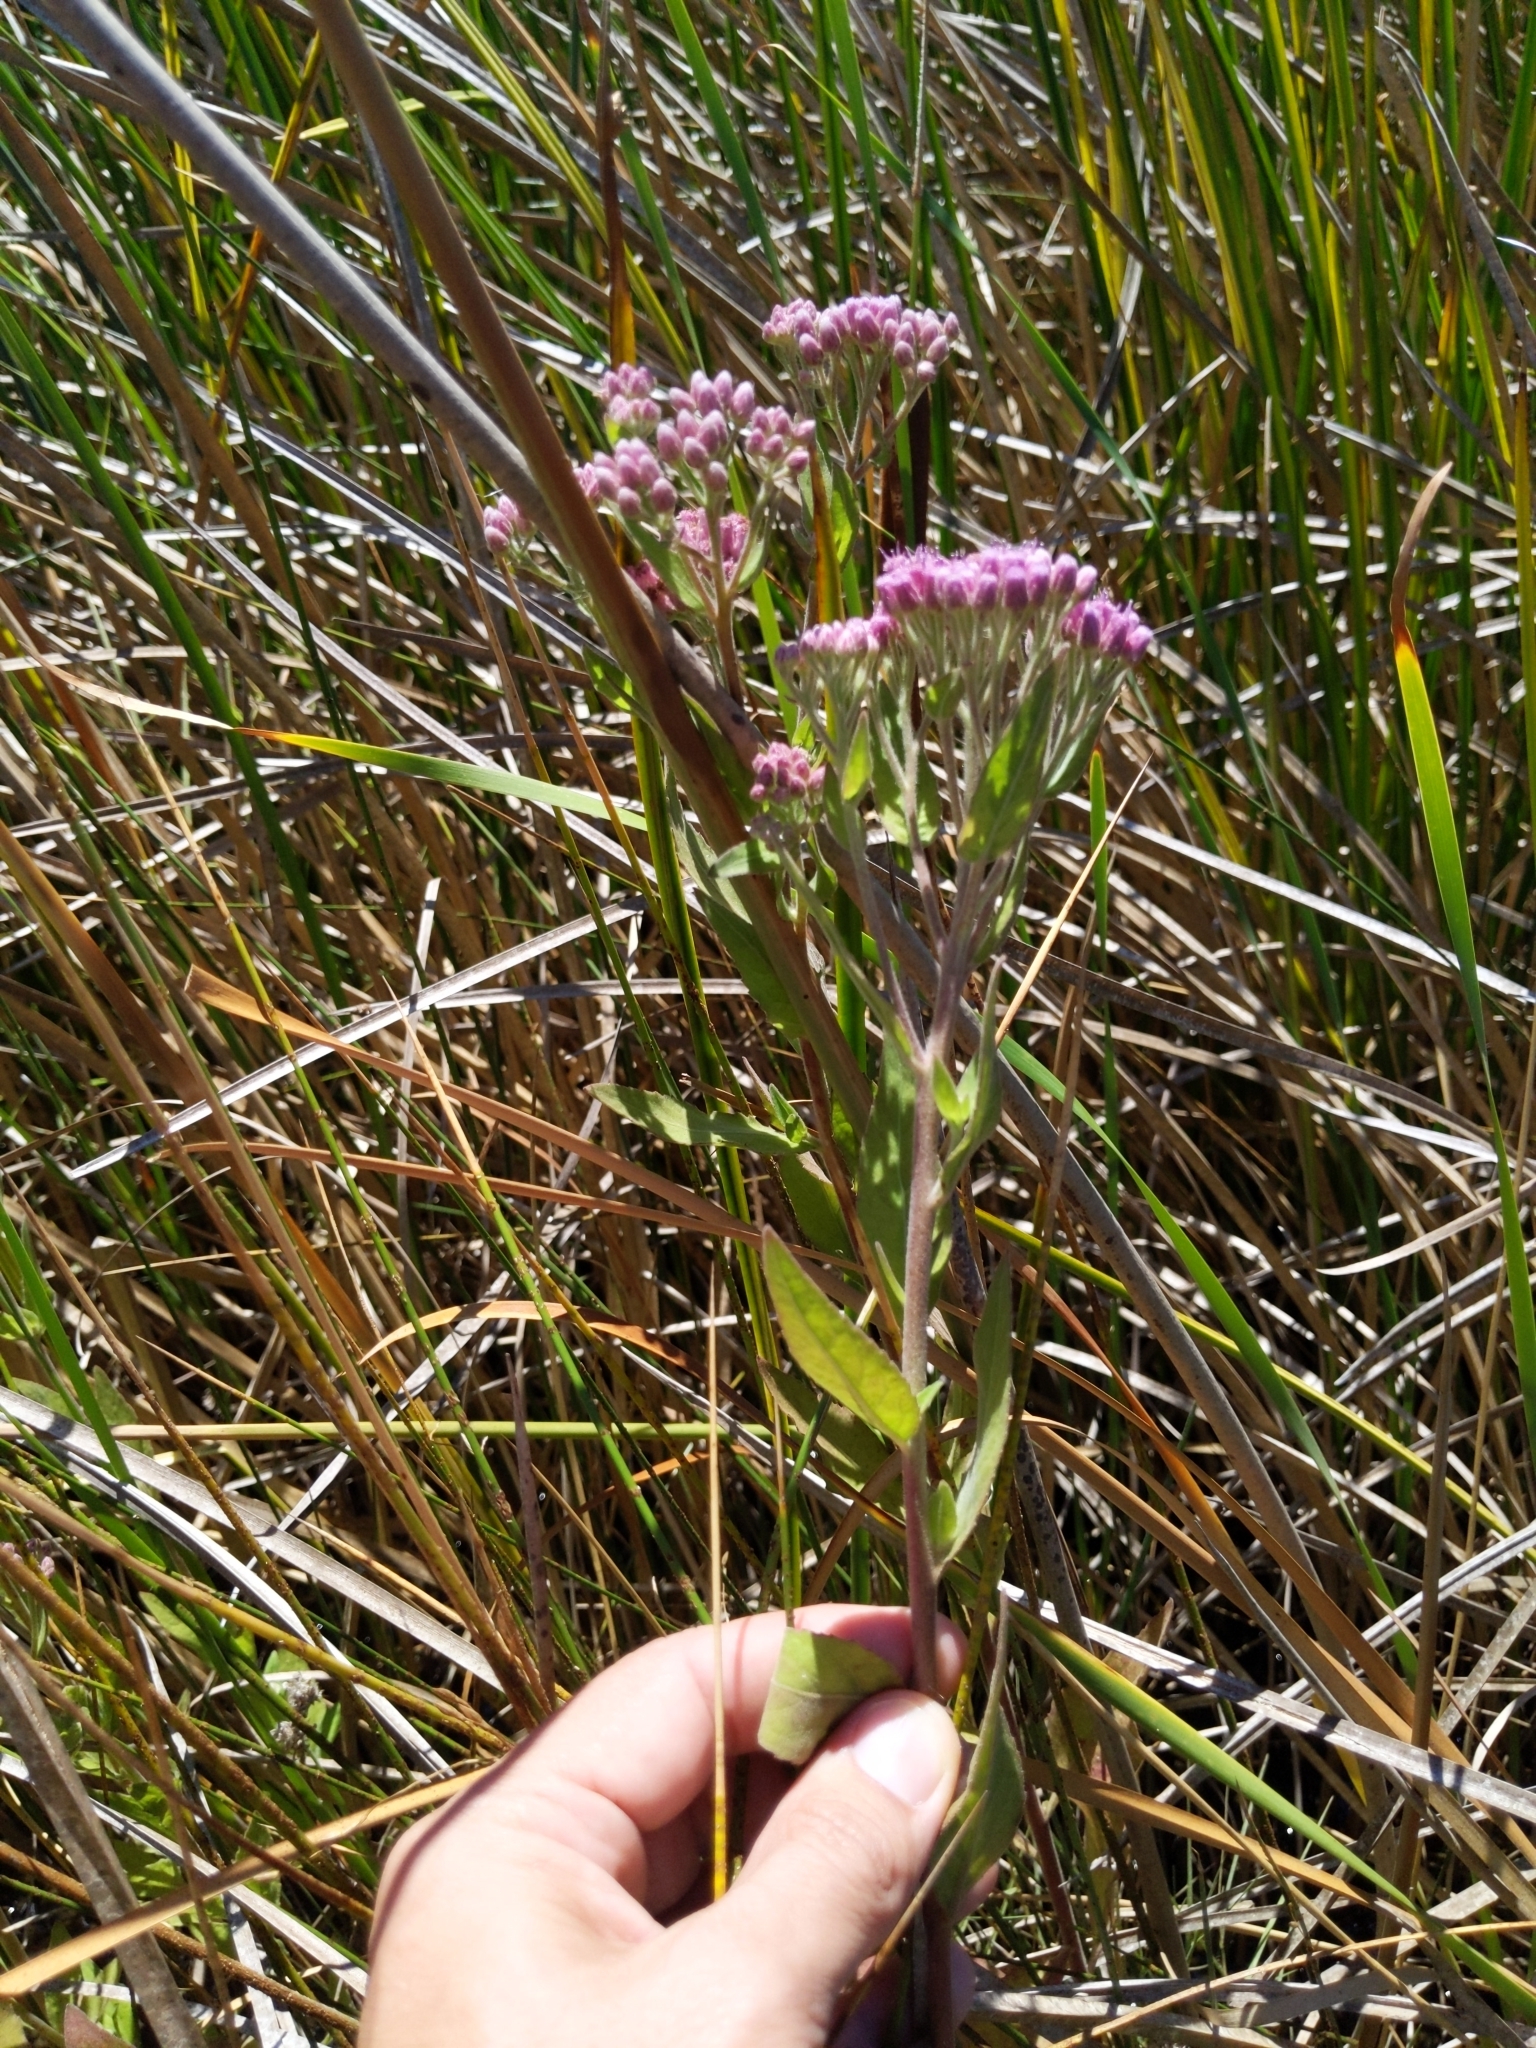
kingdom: Plantae
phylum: Tracheophyta
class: Magnoliopsida
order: Asterales
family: Asteraceae
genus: Pluchea
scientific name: Pluchea odorata
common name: Saltmarsh fleabane
